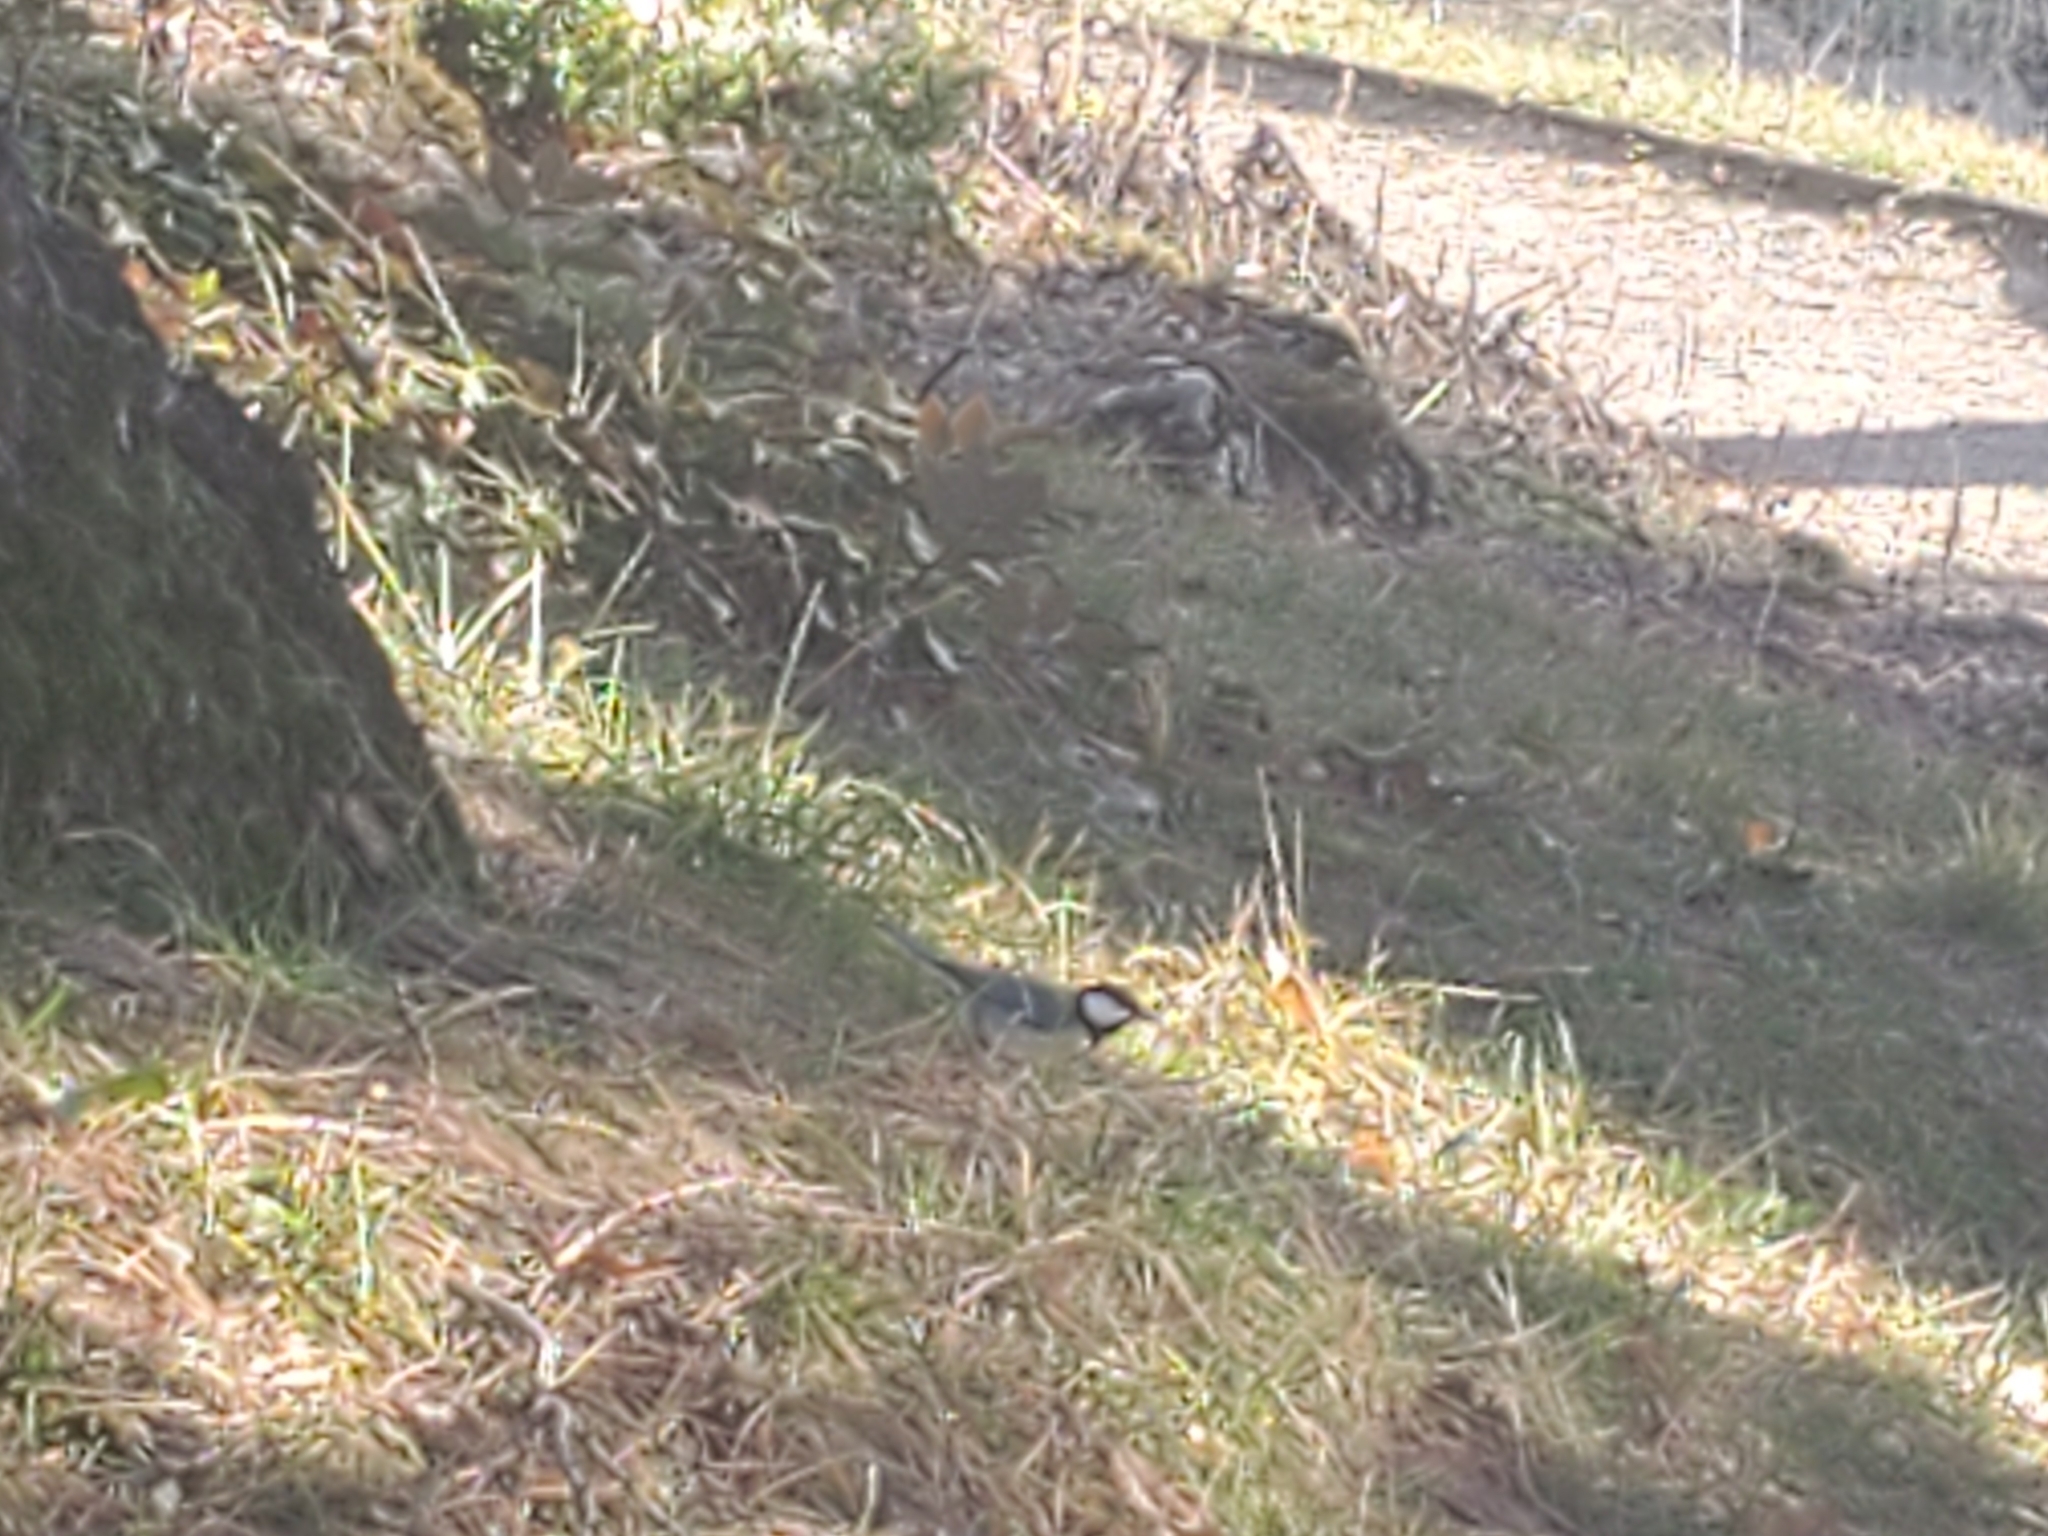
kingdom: Animalia
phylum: Chordata
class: Aves
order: Passeriformes
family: Paridae
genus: Parus
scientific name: Parus major
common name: Great tit
